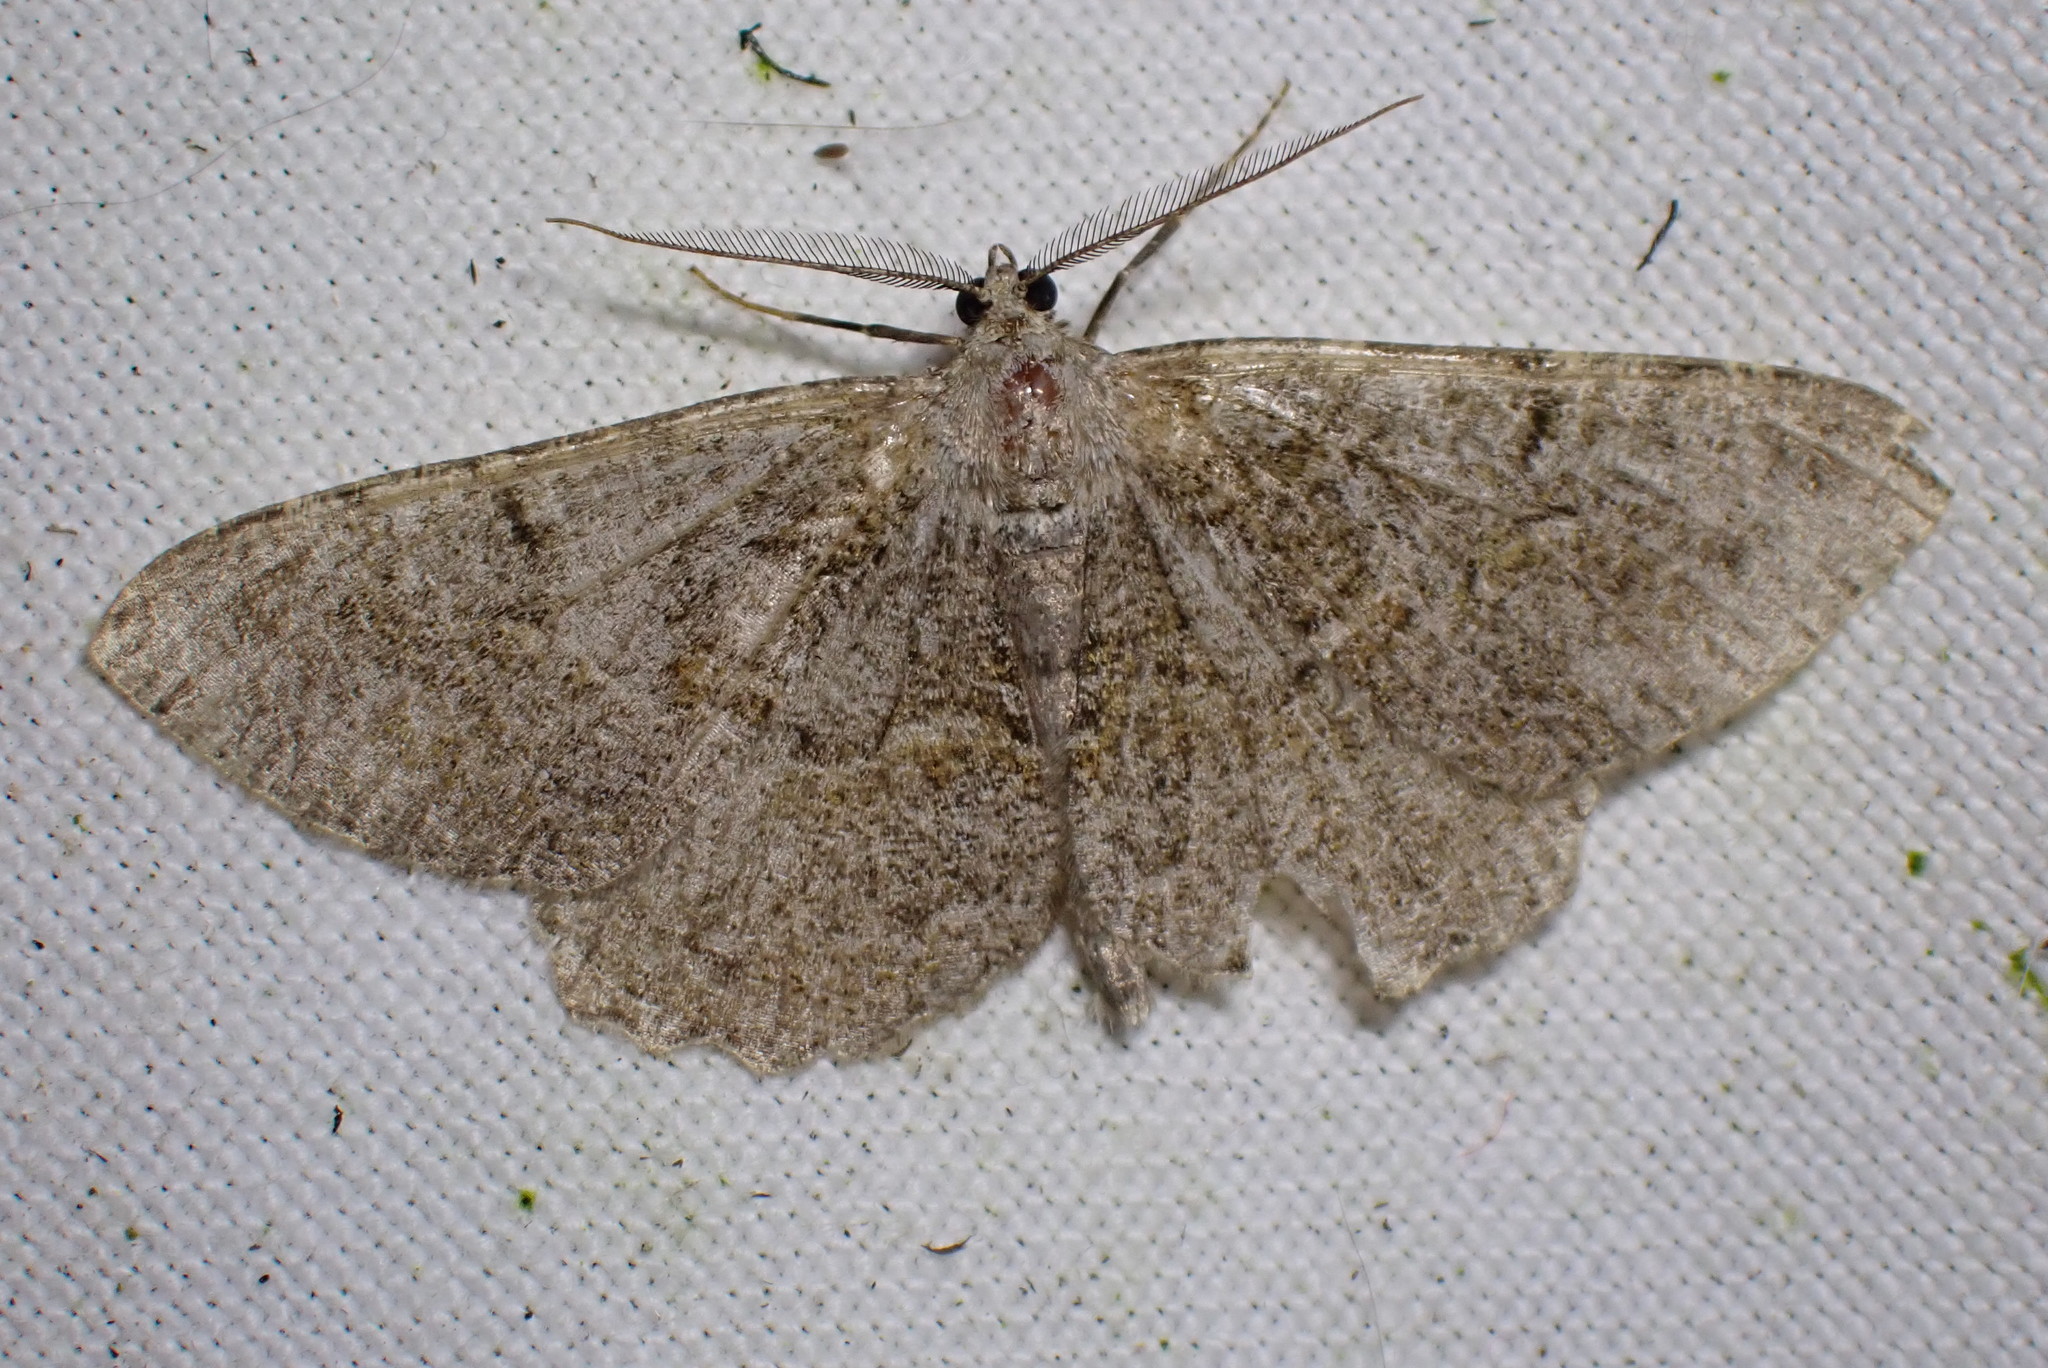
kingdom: Animalia
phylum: Arthropoda
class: Insecta
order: Lepidoptera
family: Geometridae
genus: Alcis
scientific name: Alcis repandata
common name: Mottled beauty
